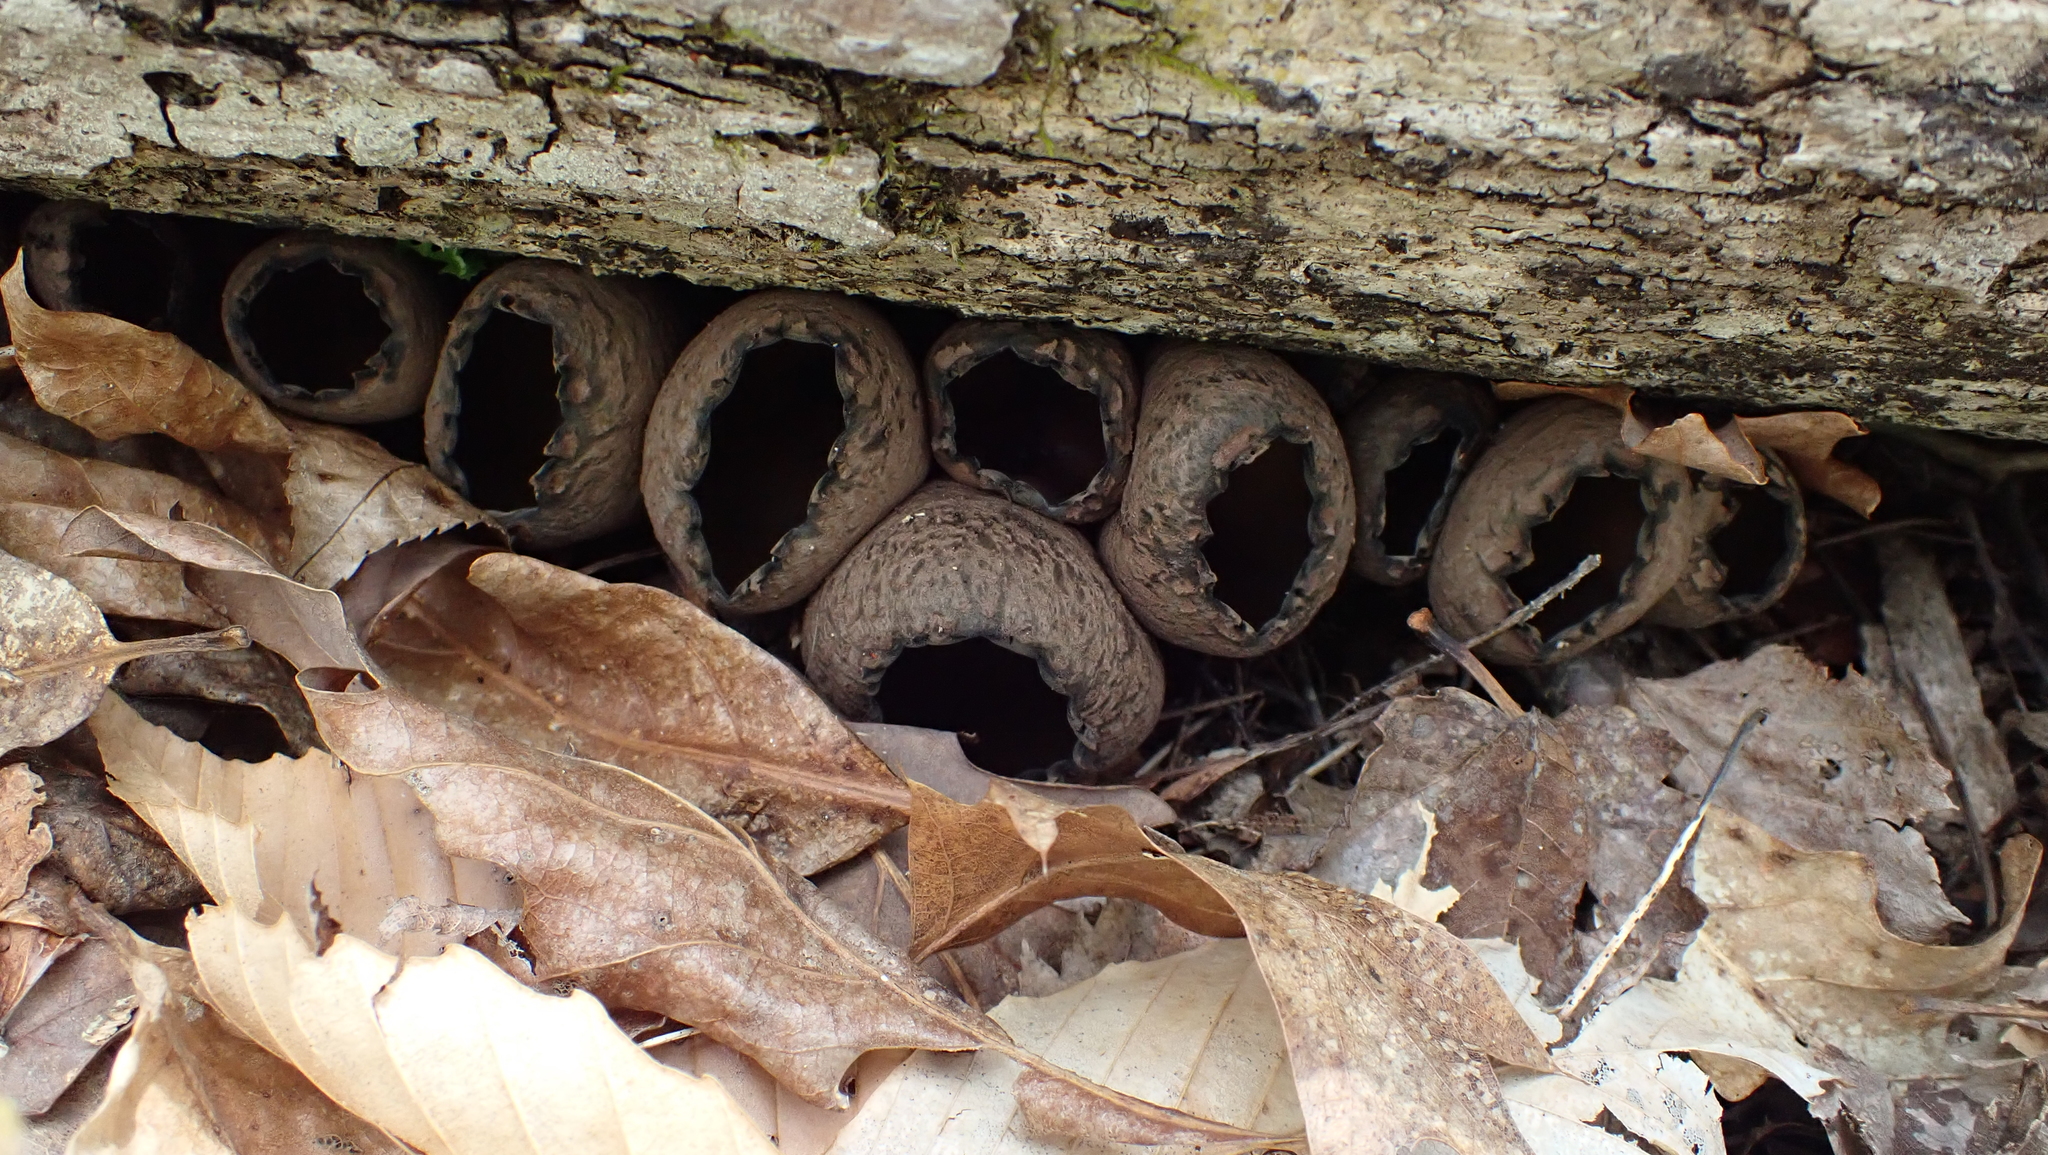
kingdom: Fungi
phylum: Ascomycota
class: Pezizomycetes
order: Pezizales
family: Sarcosomataceae
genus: Urnula
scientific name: Urnula craterium
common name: Devil's urn
